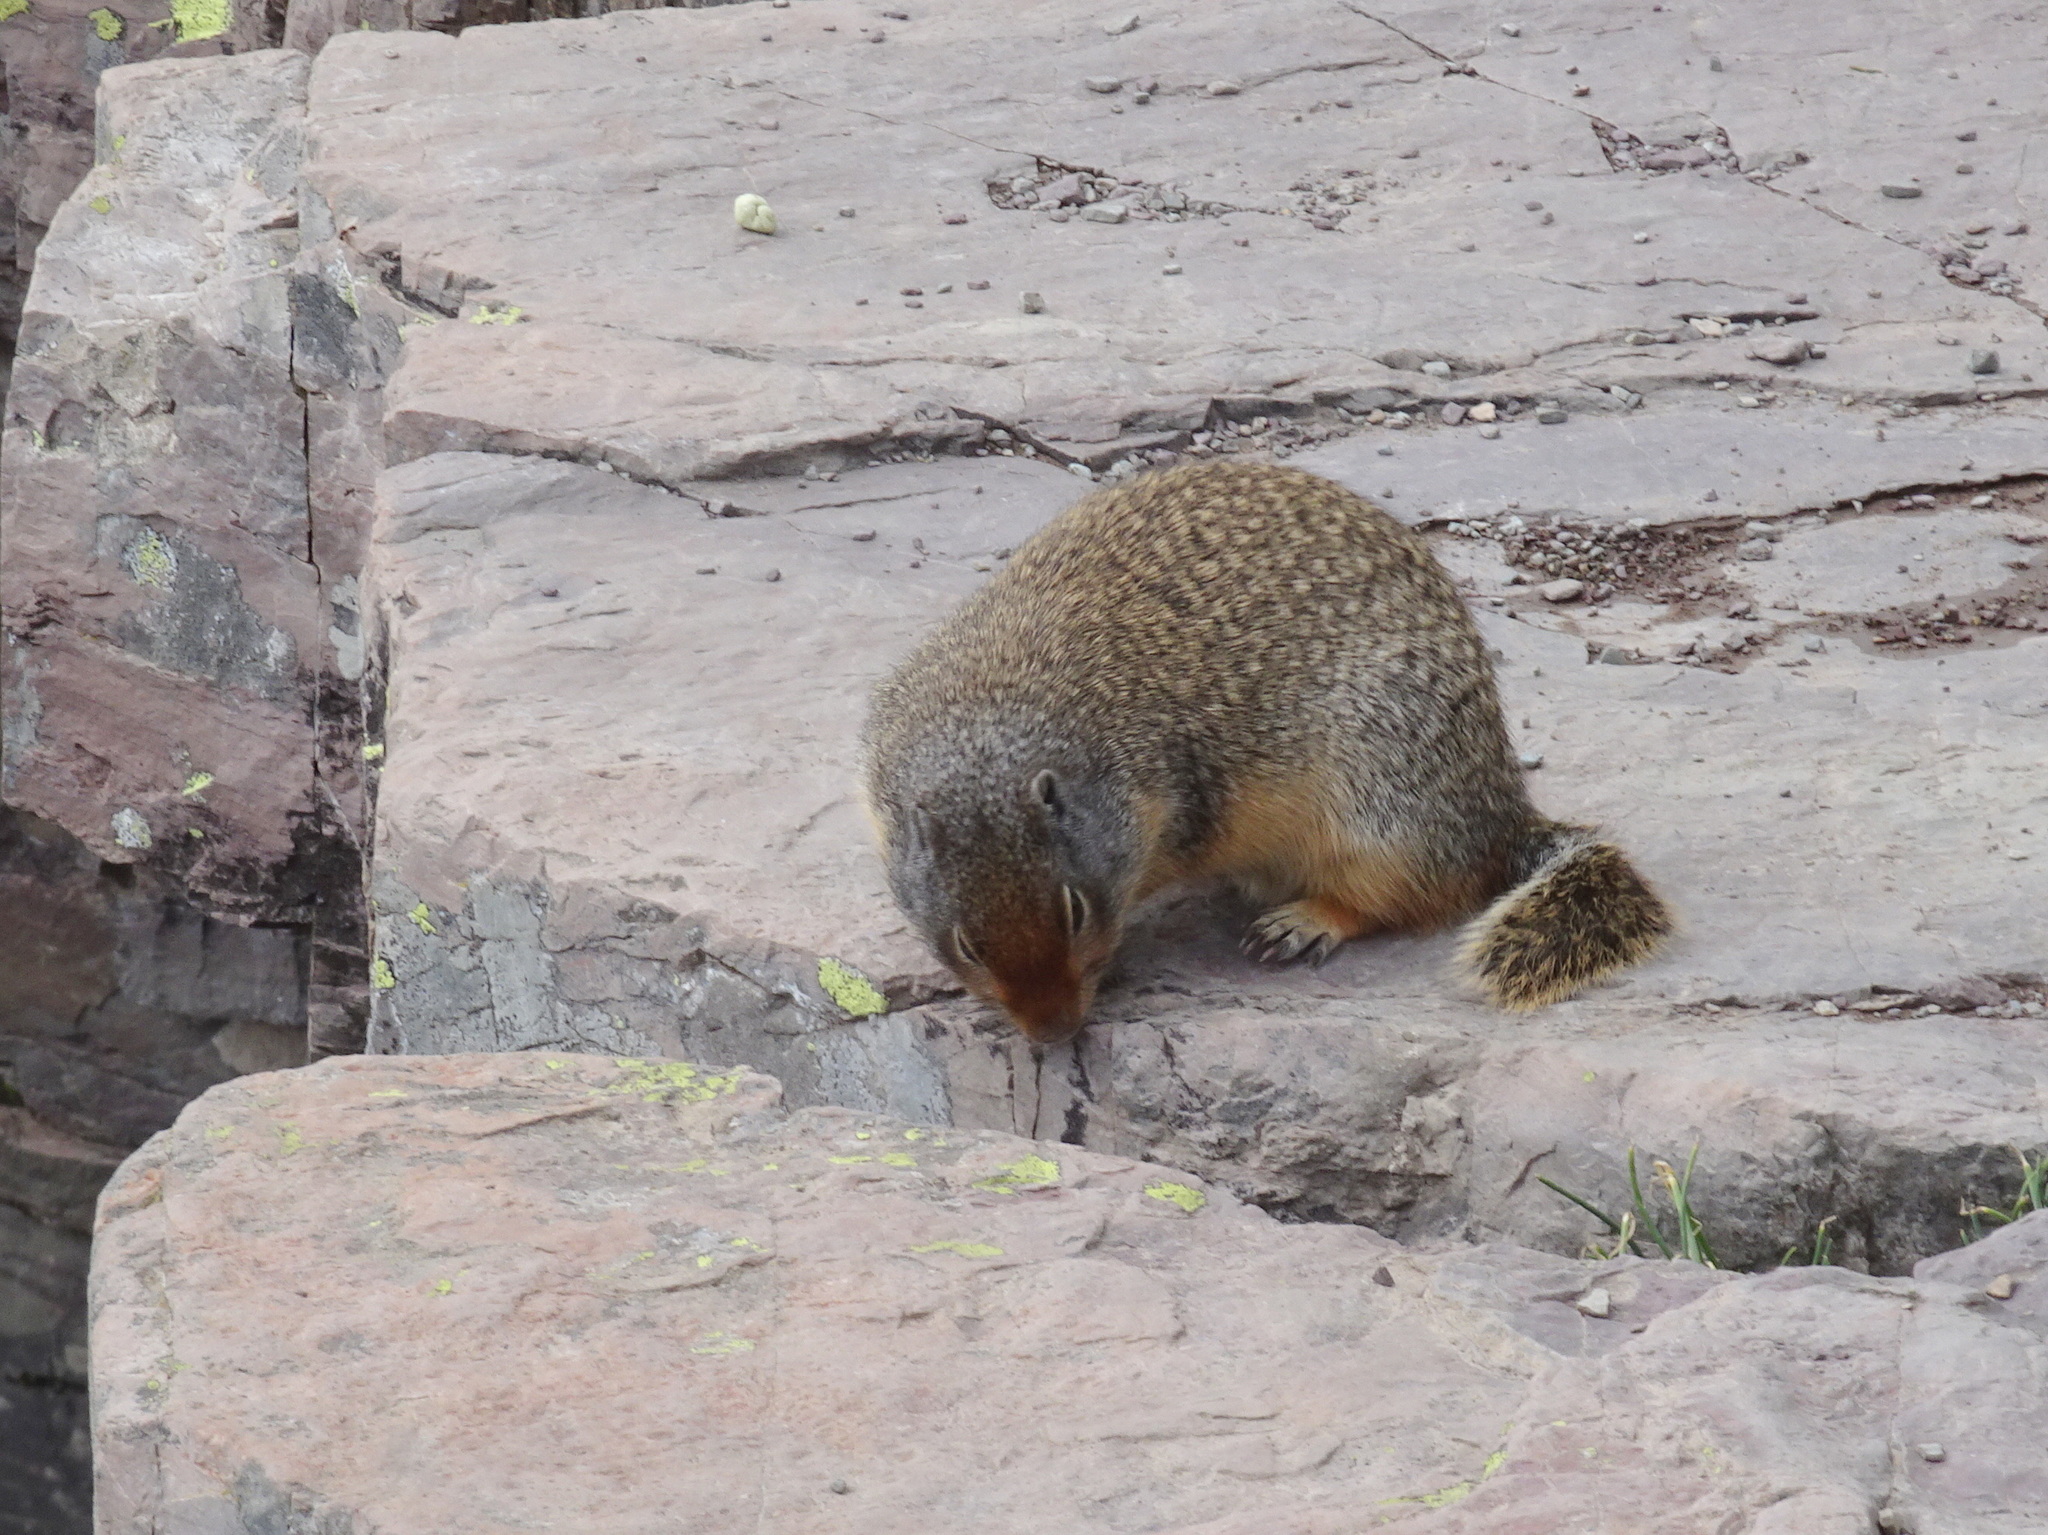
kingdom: Animalia
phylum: Chordata
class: Mammalia
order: Rodentia
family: Sciuridae
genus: Urocitellus
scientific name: Urocitellus columbianus
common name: Columbian ground squirrel
